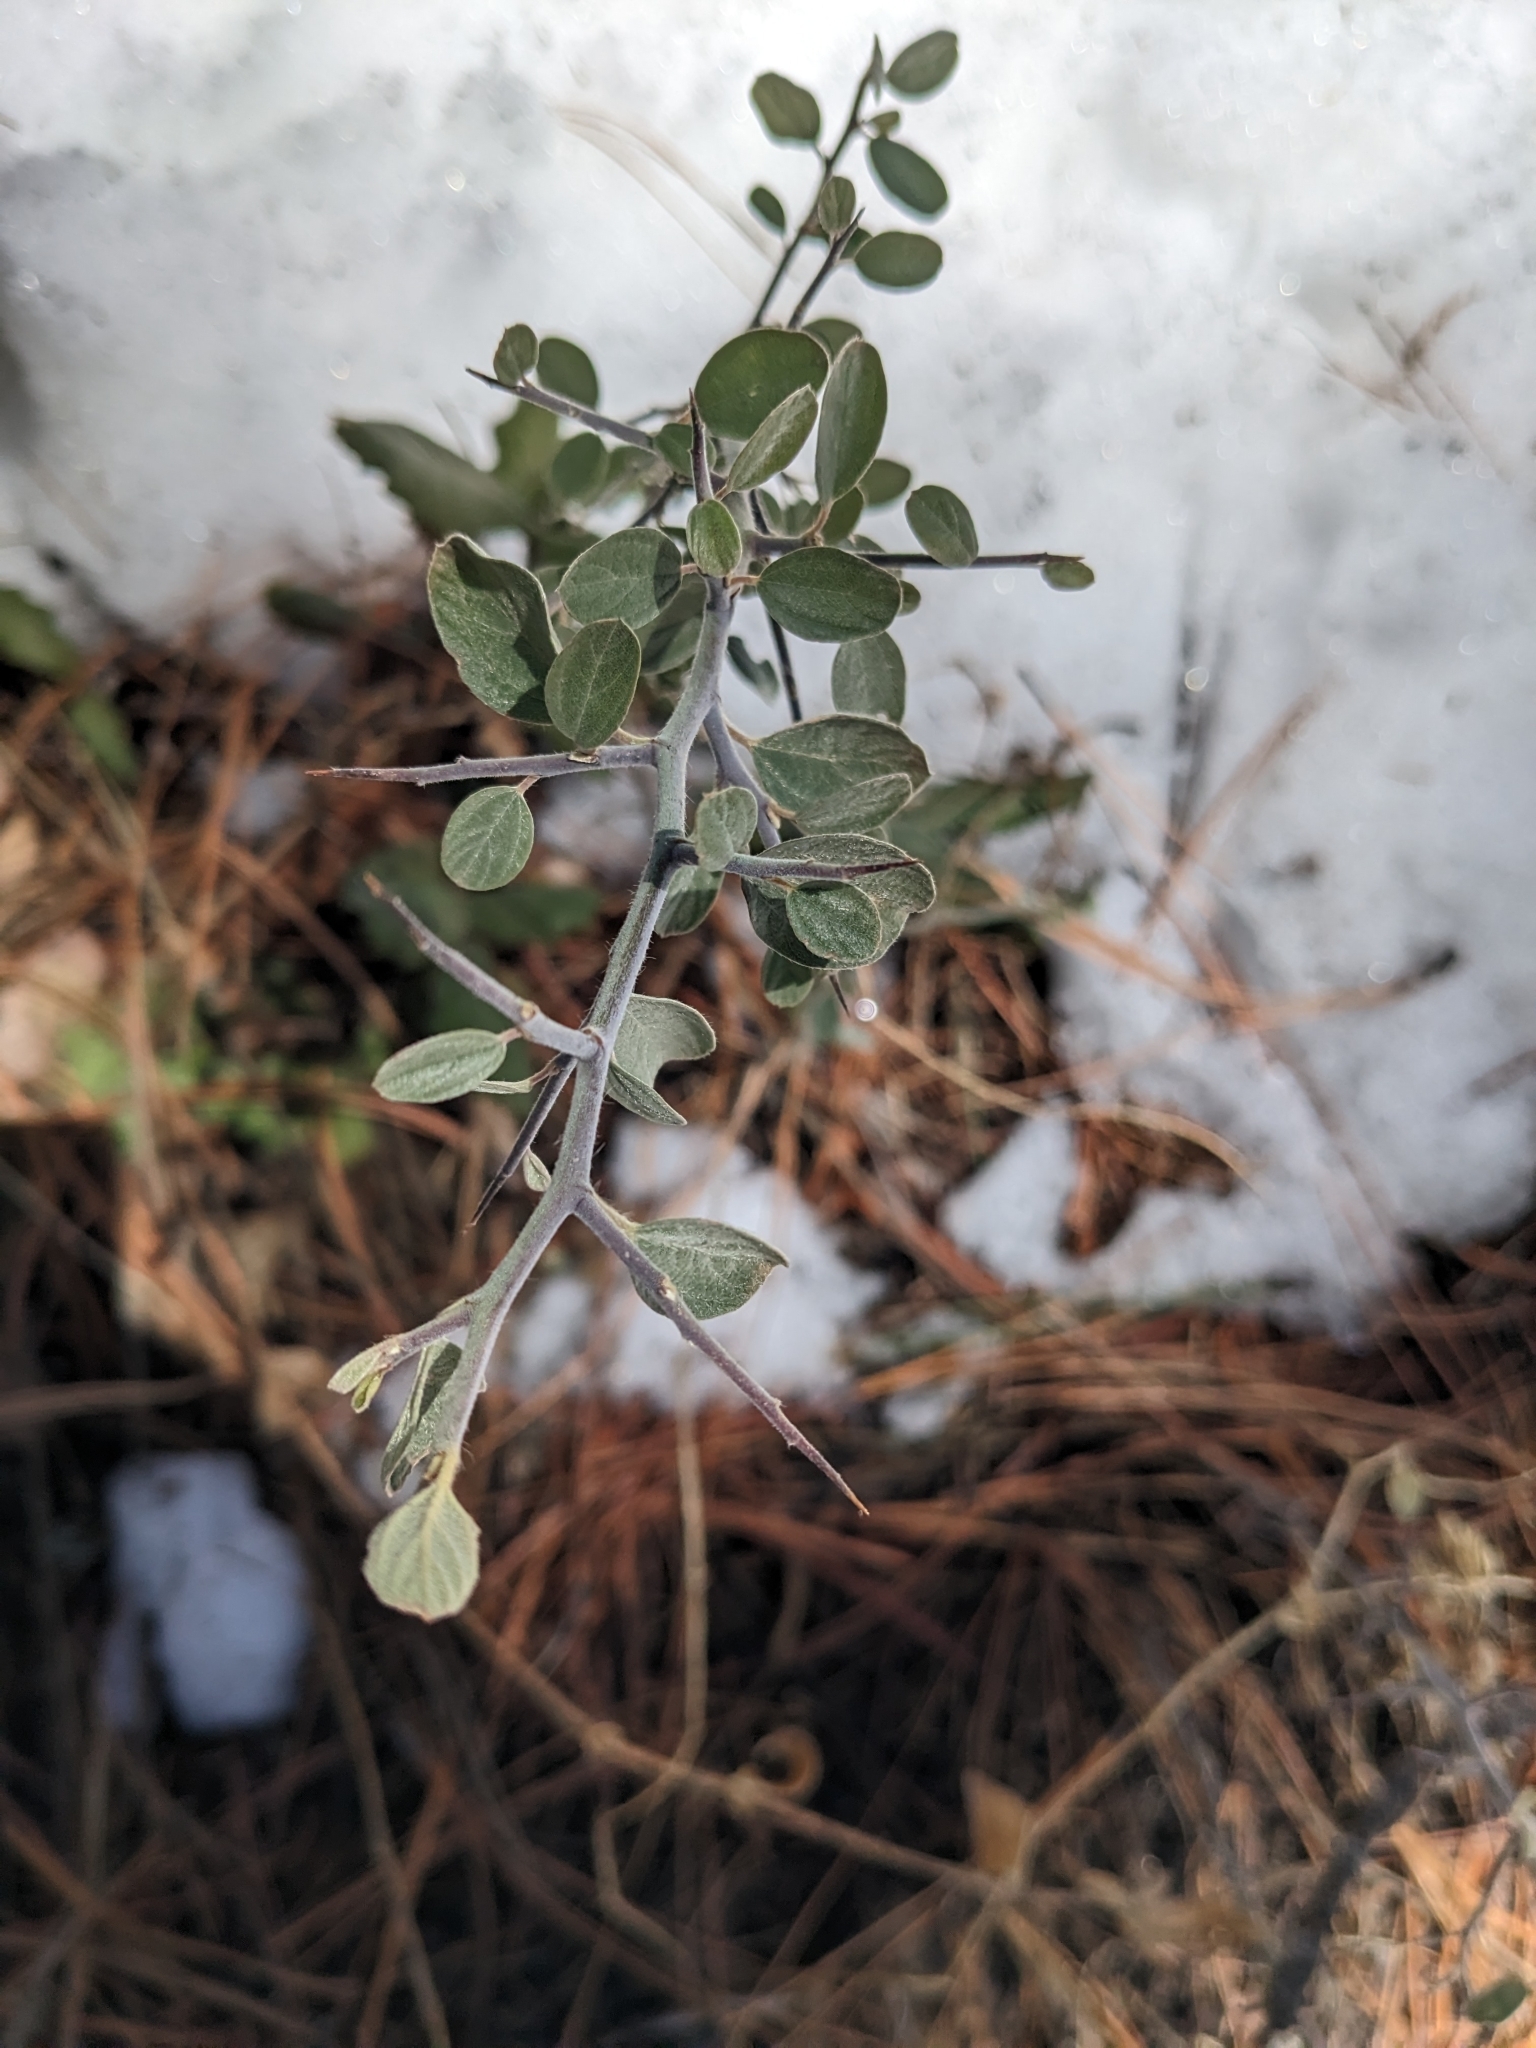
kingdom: Plantae
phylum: Tracheophyta
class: Magnoliopsida
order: Rosales
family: Rhamnaceae
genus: Ceanothus
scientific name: Ceanothus fendleri
